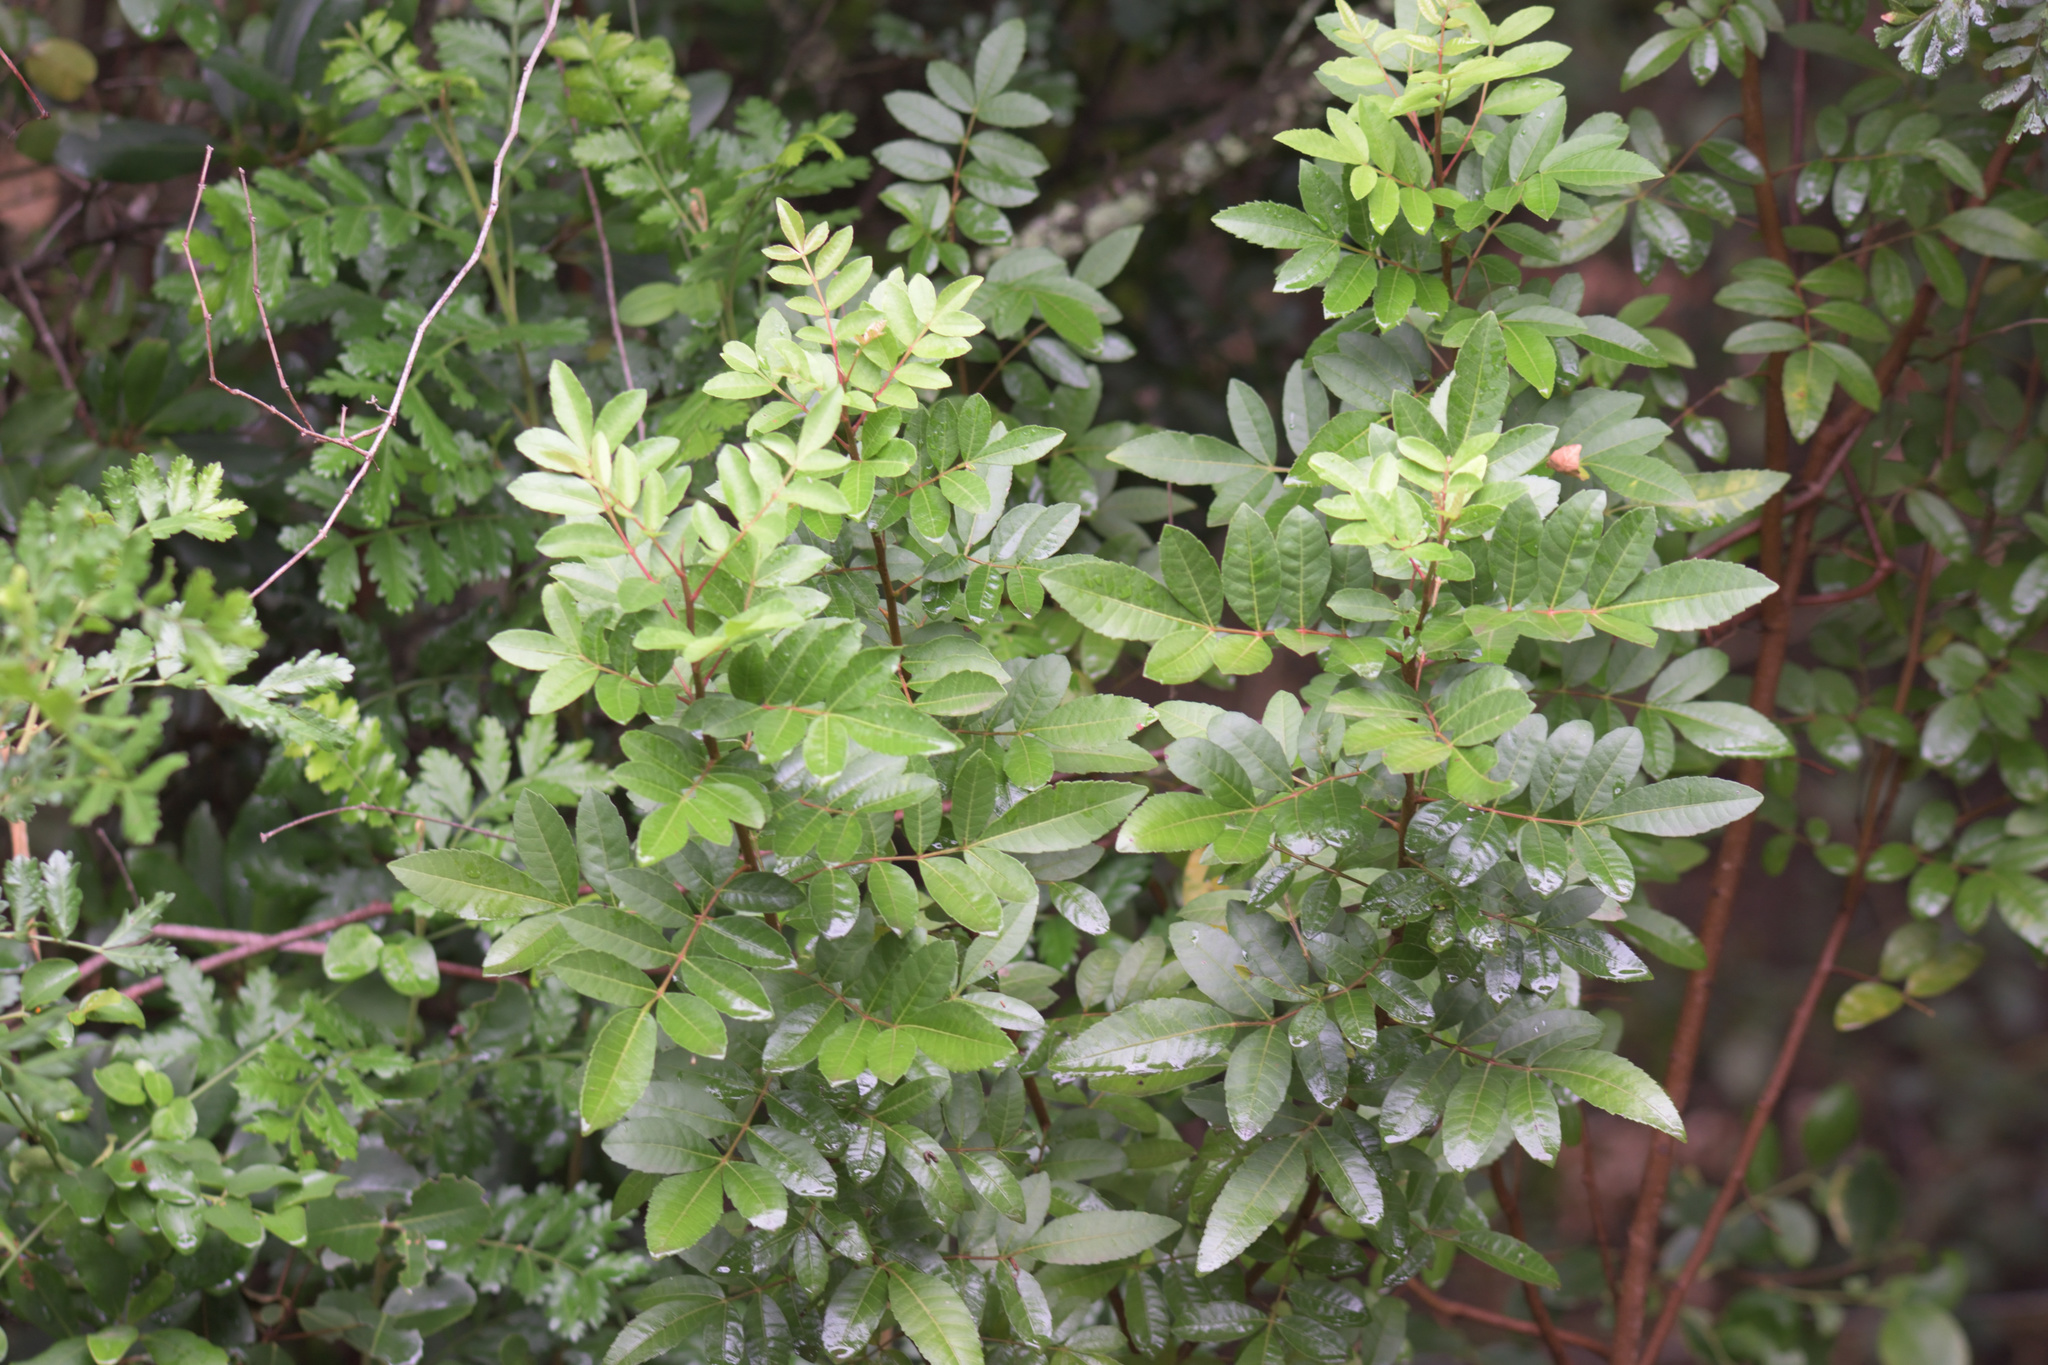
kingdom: Plantae
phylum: Tracheophyta
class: Magnoliopsida
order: Sapindales
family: Anacardiaceae
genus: Schinus
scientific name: Schinus terebinthifolia
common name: Brazilian peppertree
